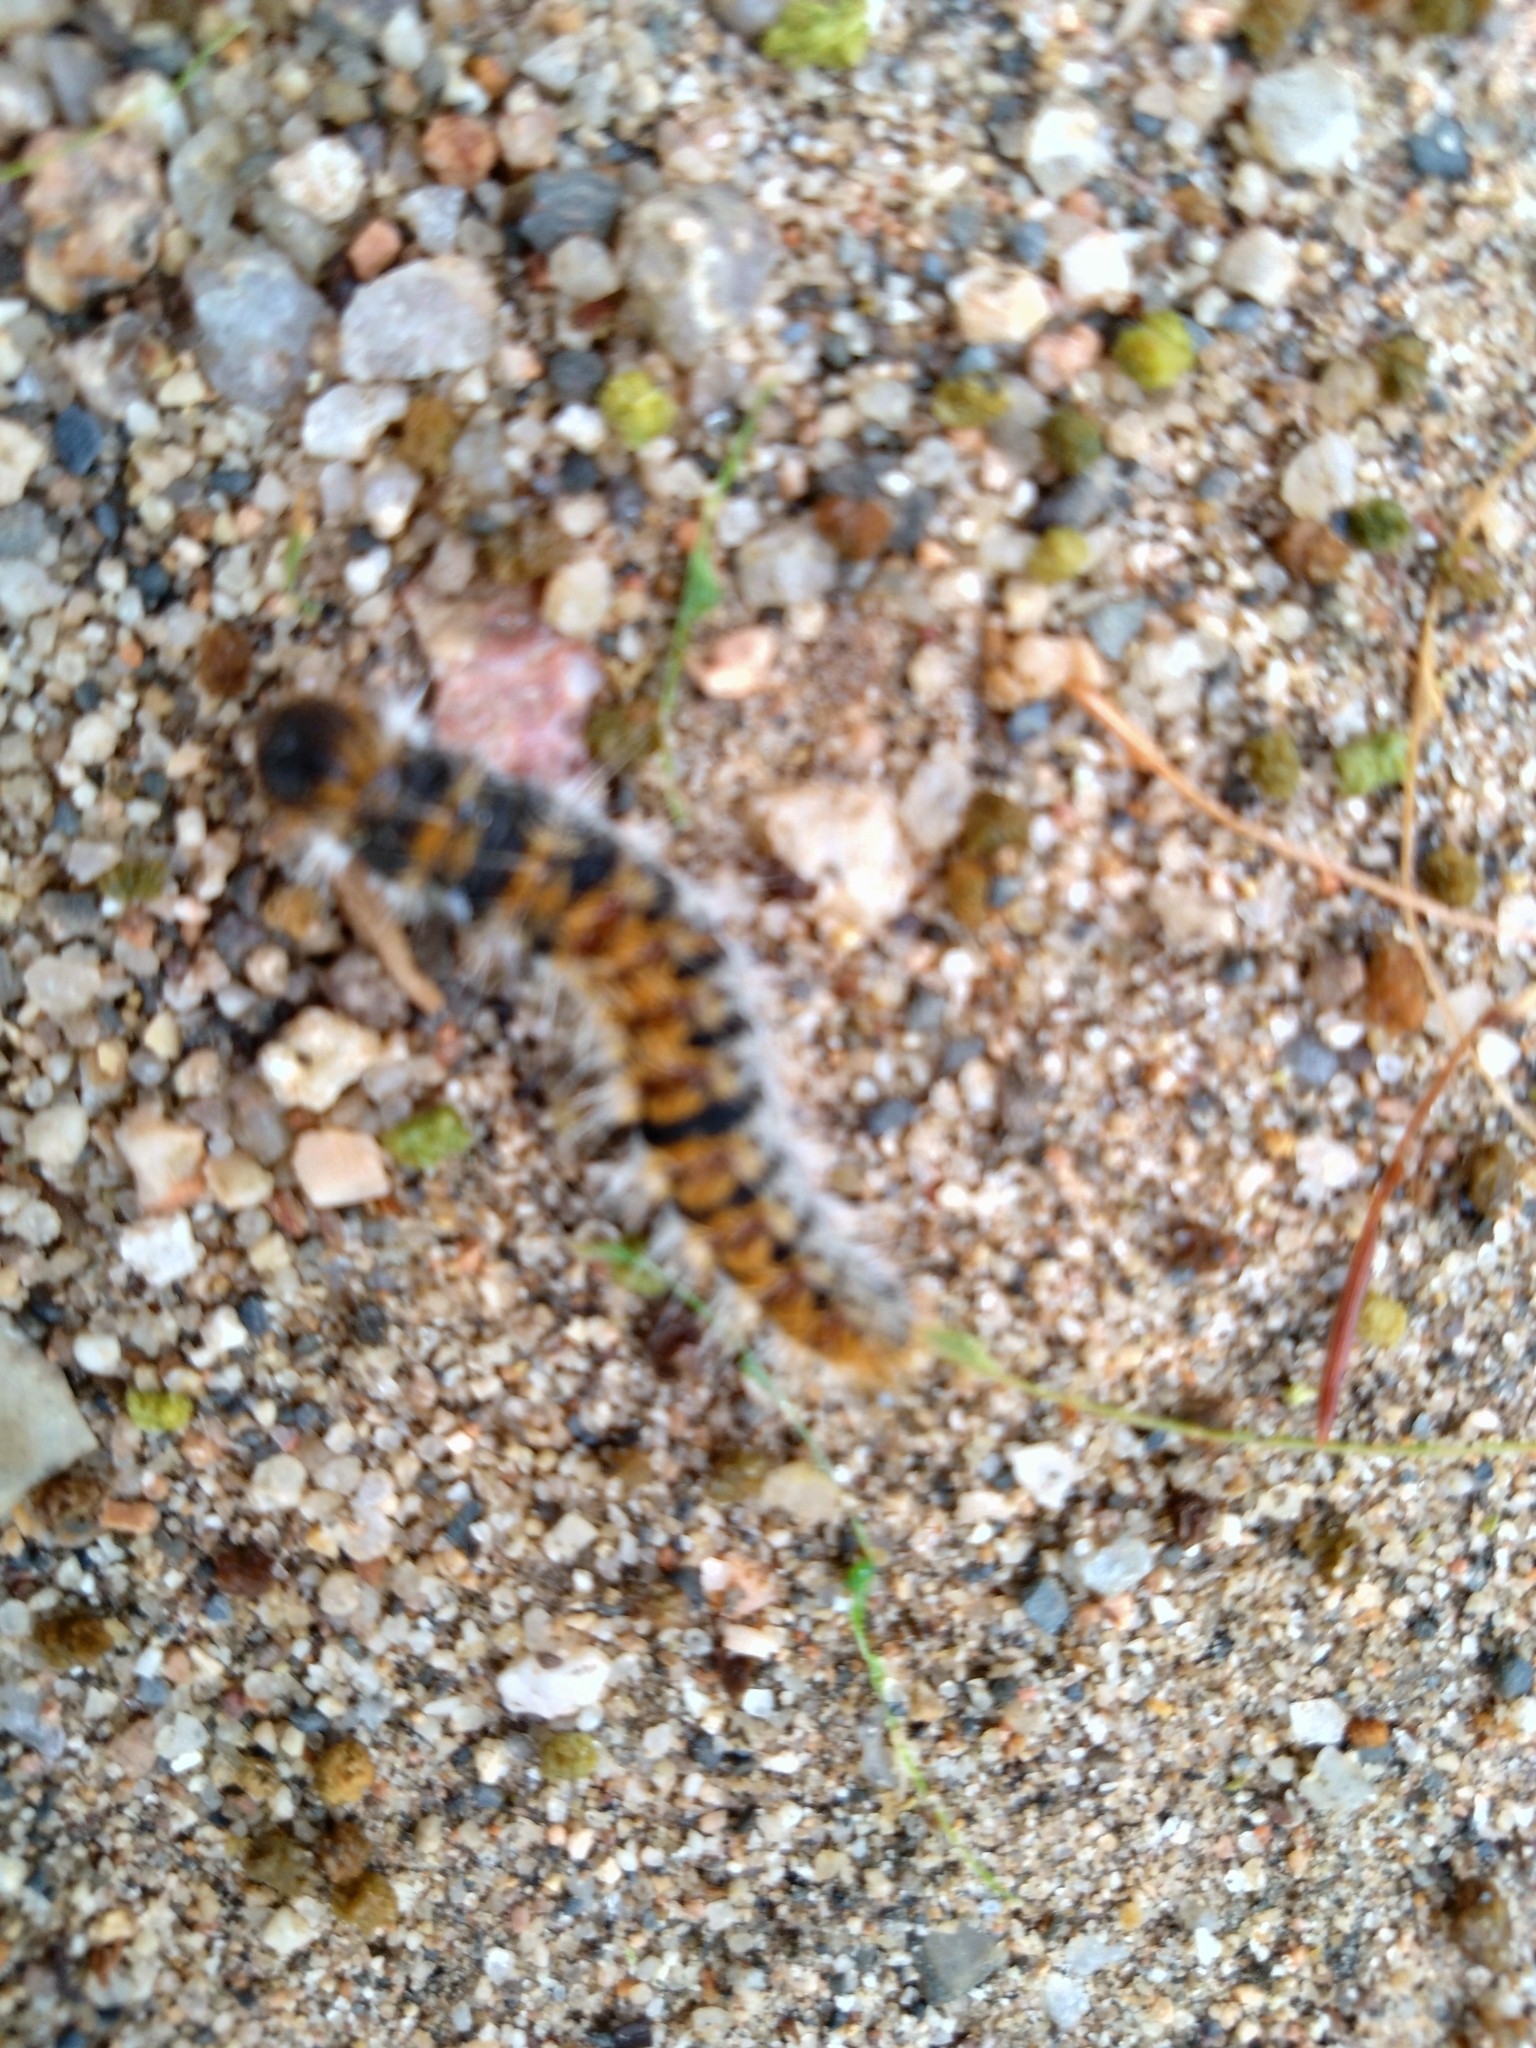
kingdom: Animalia
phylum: Arthropoda
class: Insecta
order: Lepidoptera
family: Notodontidae
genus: Thaumetopoea
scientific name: Thaumetopoea pityocampa
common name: Pine processionary
